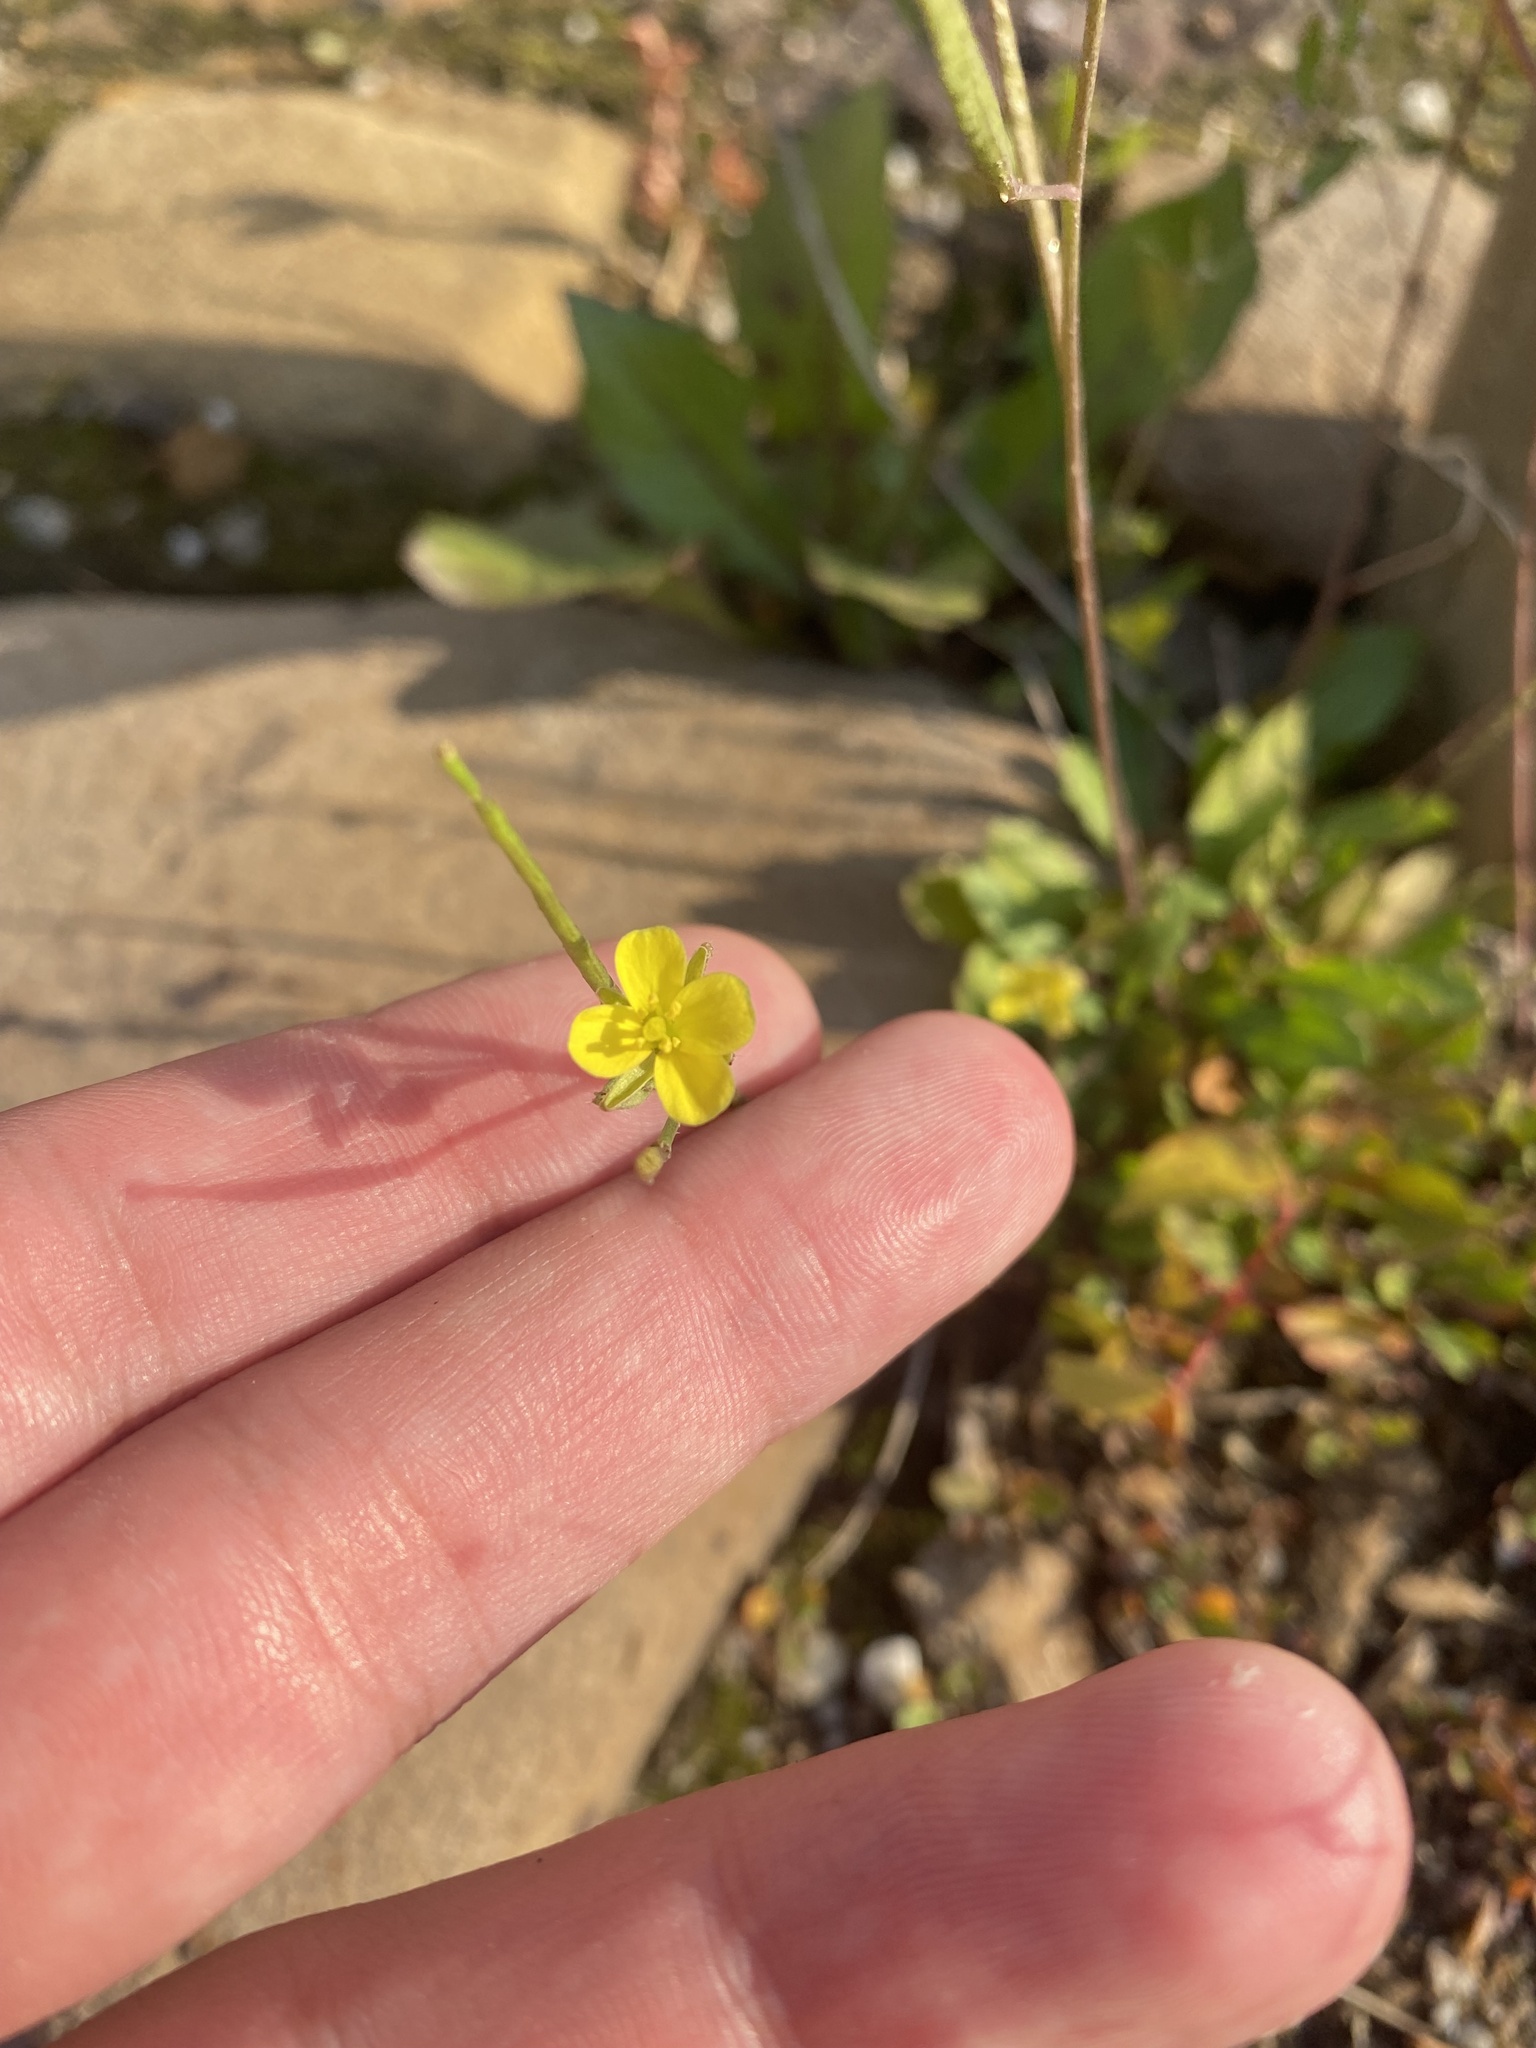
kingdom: Plantae
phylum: Tracheophyta
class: Magnoliopsida
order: Brassicales
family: Brassicaceae
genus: Diplotaxis
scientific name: Diplotaxis muralis
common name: Annual wall-rocket
